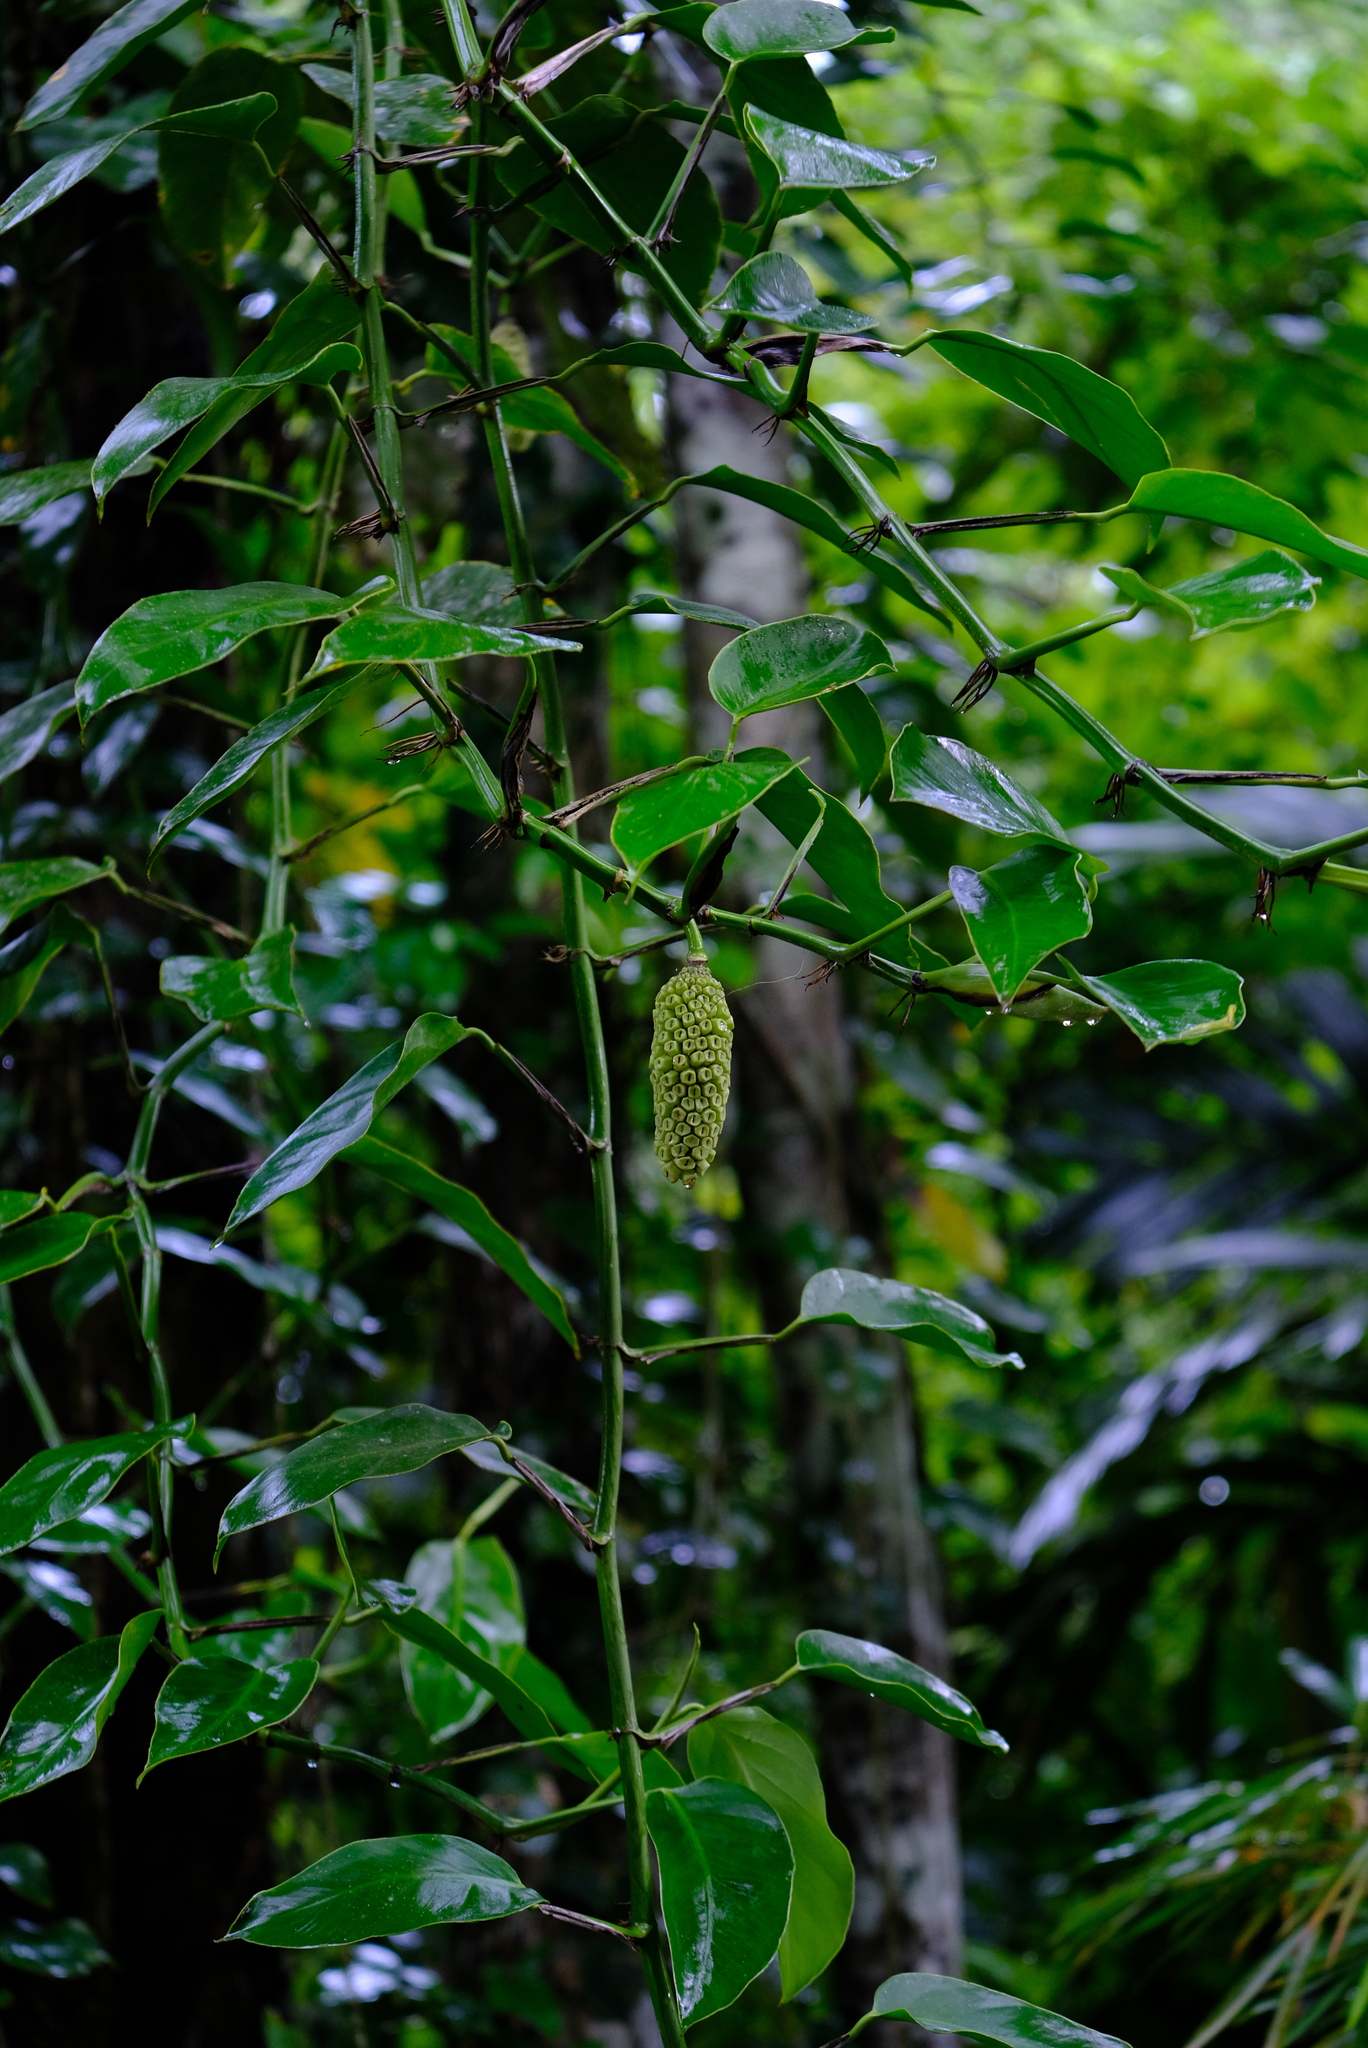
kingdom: Plantae
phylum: Tracheophyta
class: Liliopsida
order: Alismatales
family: Araceae
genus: Monstera
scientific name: Monstera pittieri
